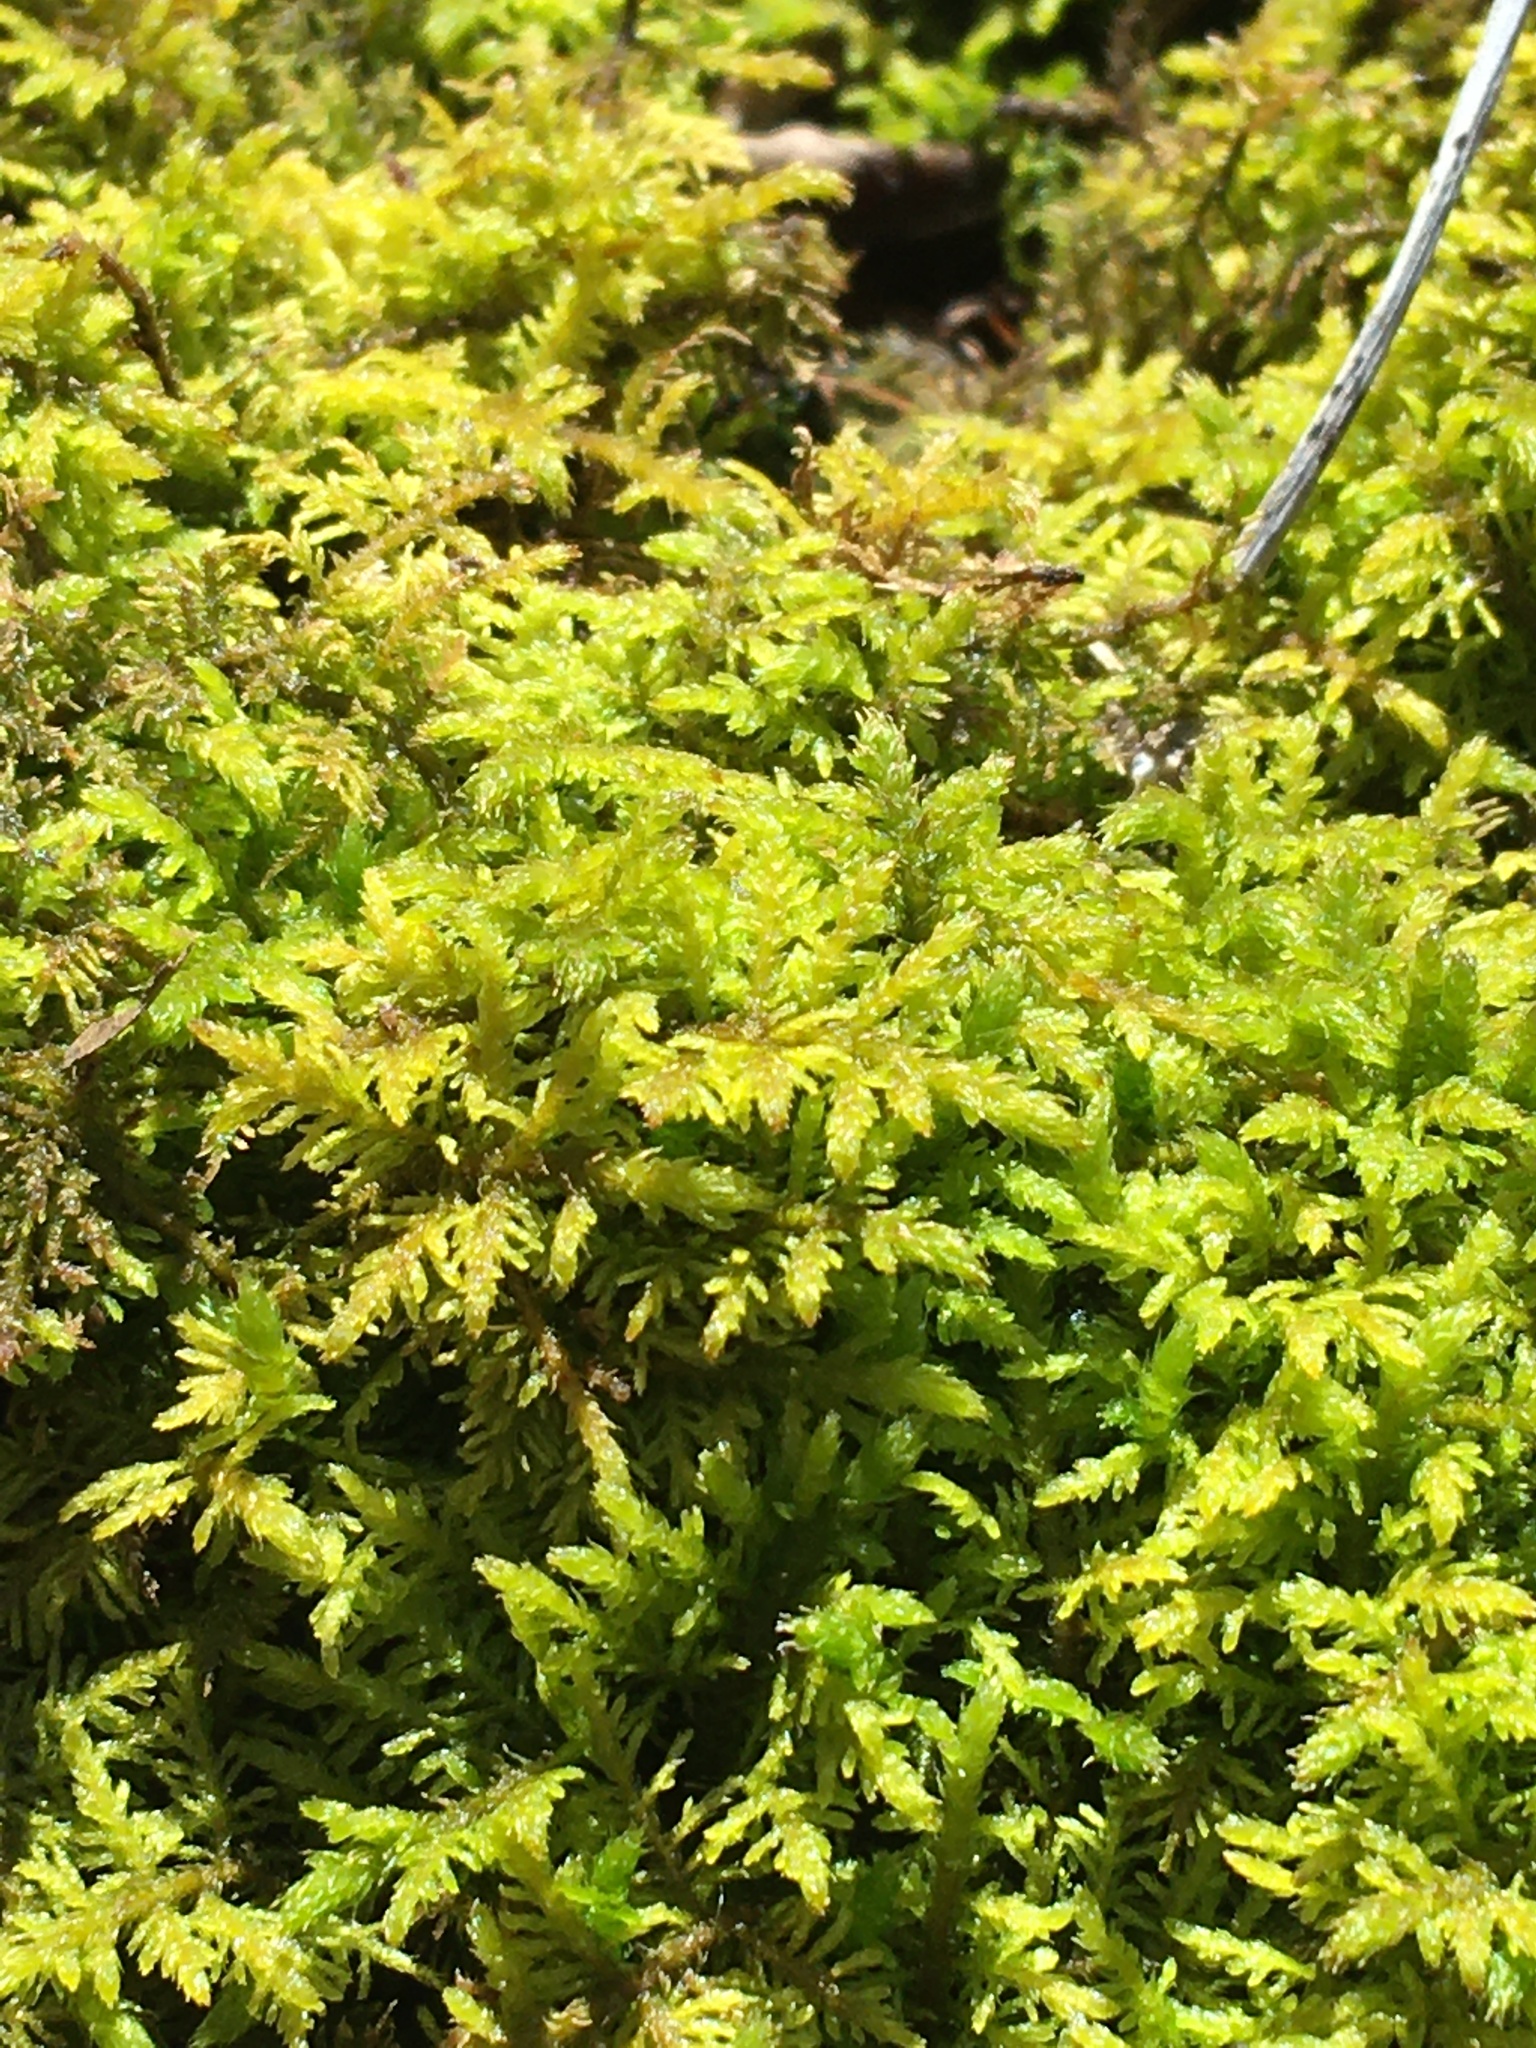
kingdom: Plantae
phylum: Bryophyta
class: Bryopsida
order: Hypnales
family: Thuidiaceae
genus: Thuidium
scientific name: Thuidium delicatulum
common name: Delicate fern moss
